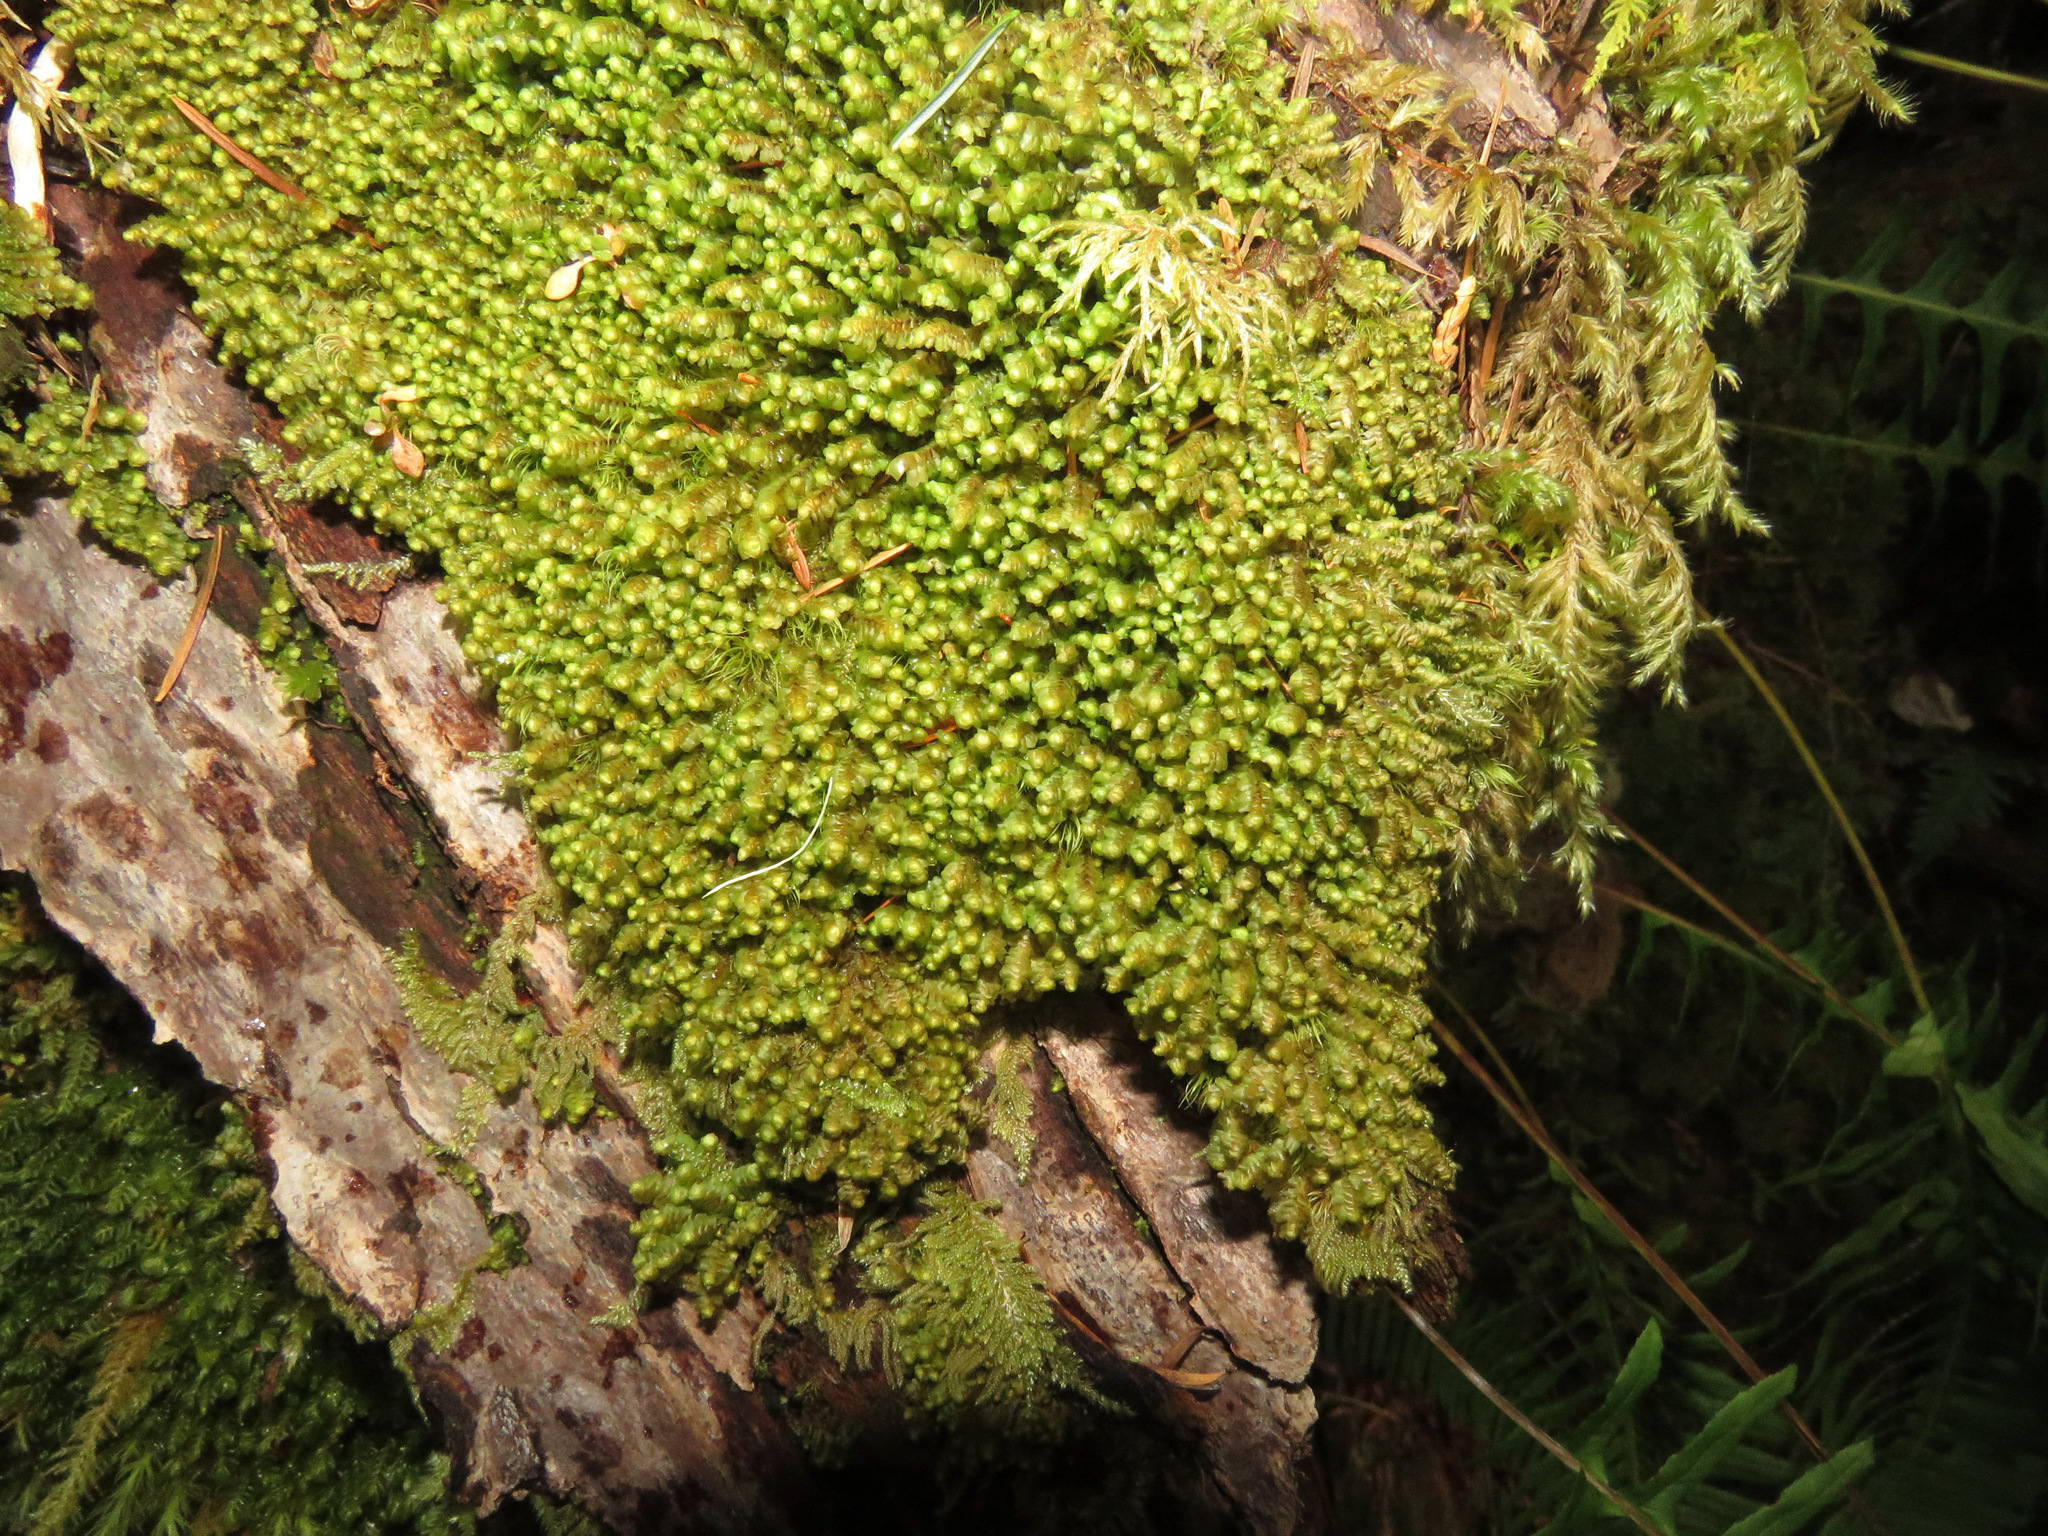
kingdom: Plantae
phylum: Marchantiophyta
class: Jungermanniopsida
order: Jungermanniales
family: Scapaniaceae
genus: Scapania
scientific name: Scapania bolanderi
